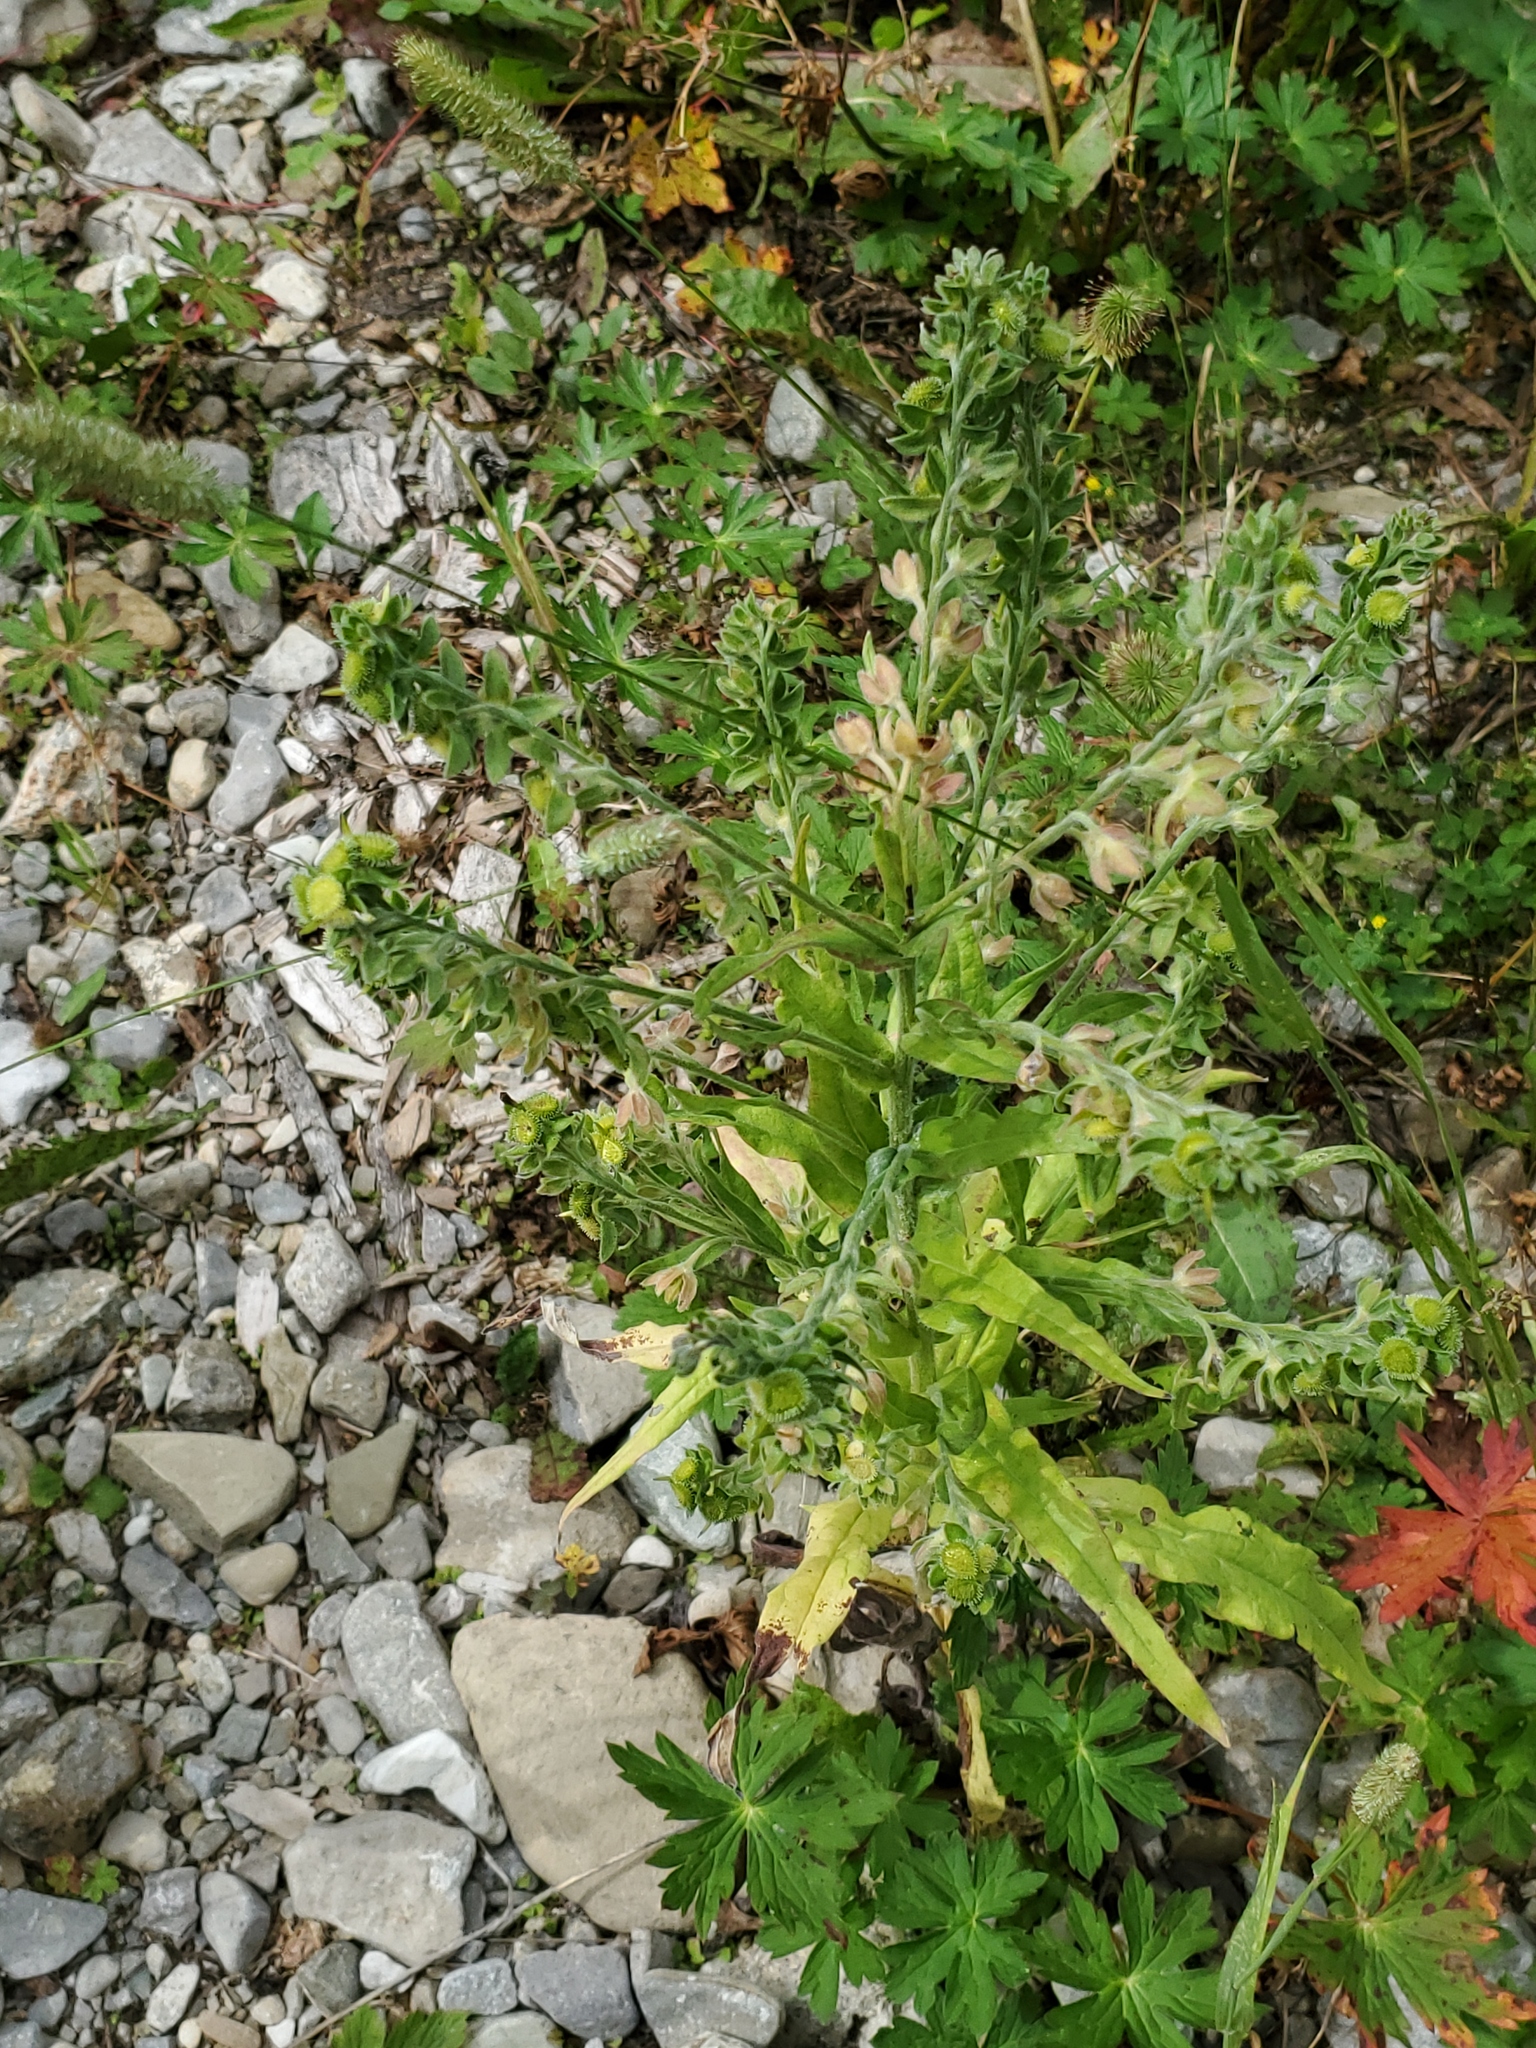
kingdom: Plantae
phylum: Tracheophyta
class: Magnoliopsida
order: Boraginales
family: Boraginaceae
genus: Cynoglossum
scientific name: Cynoglossum officinale
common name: Hound's-tongue
